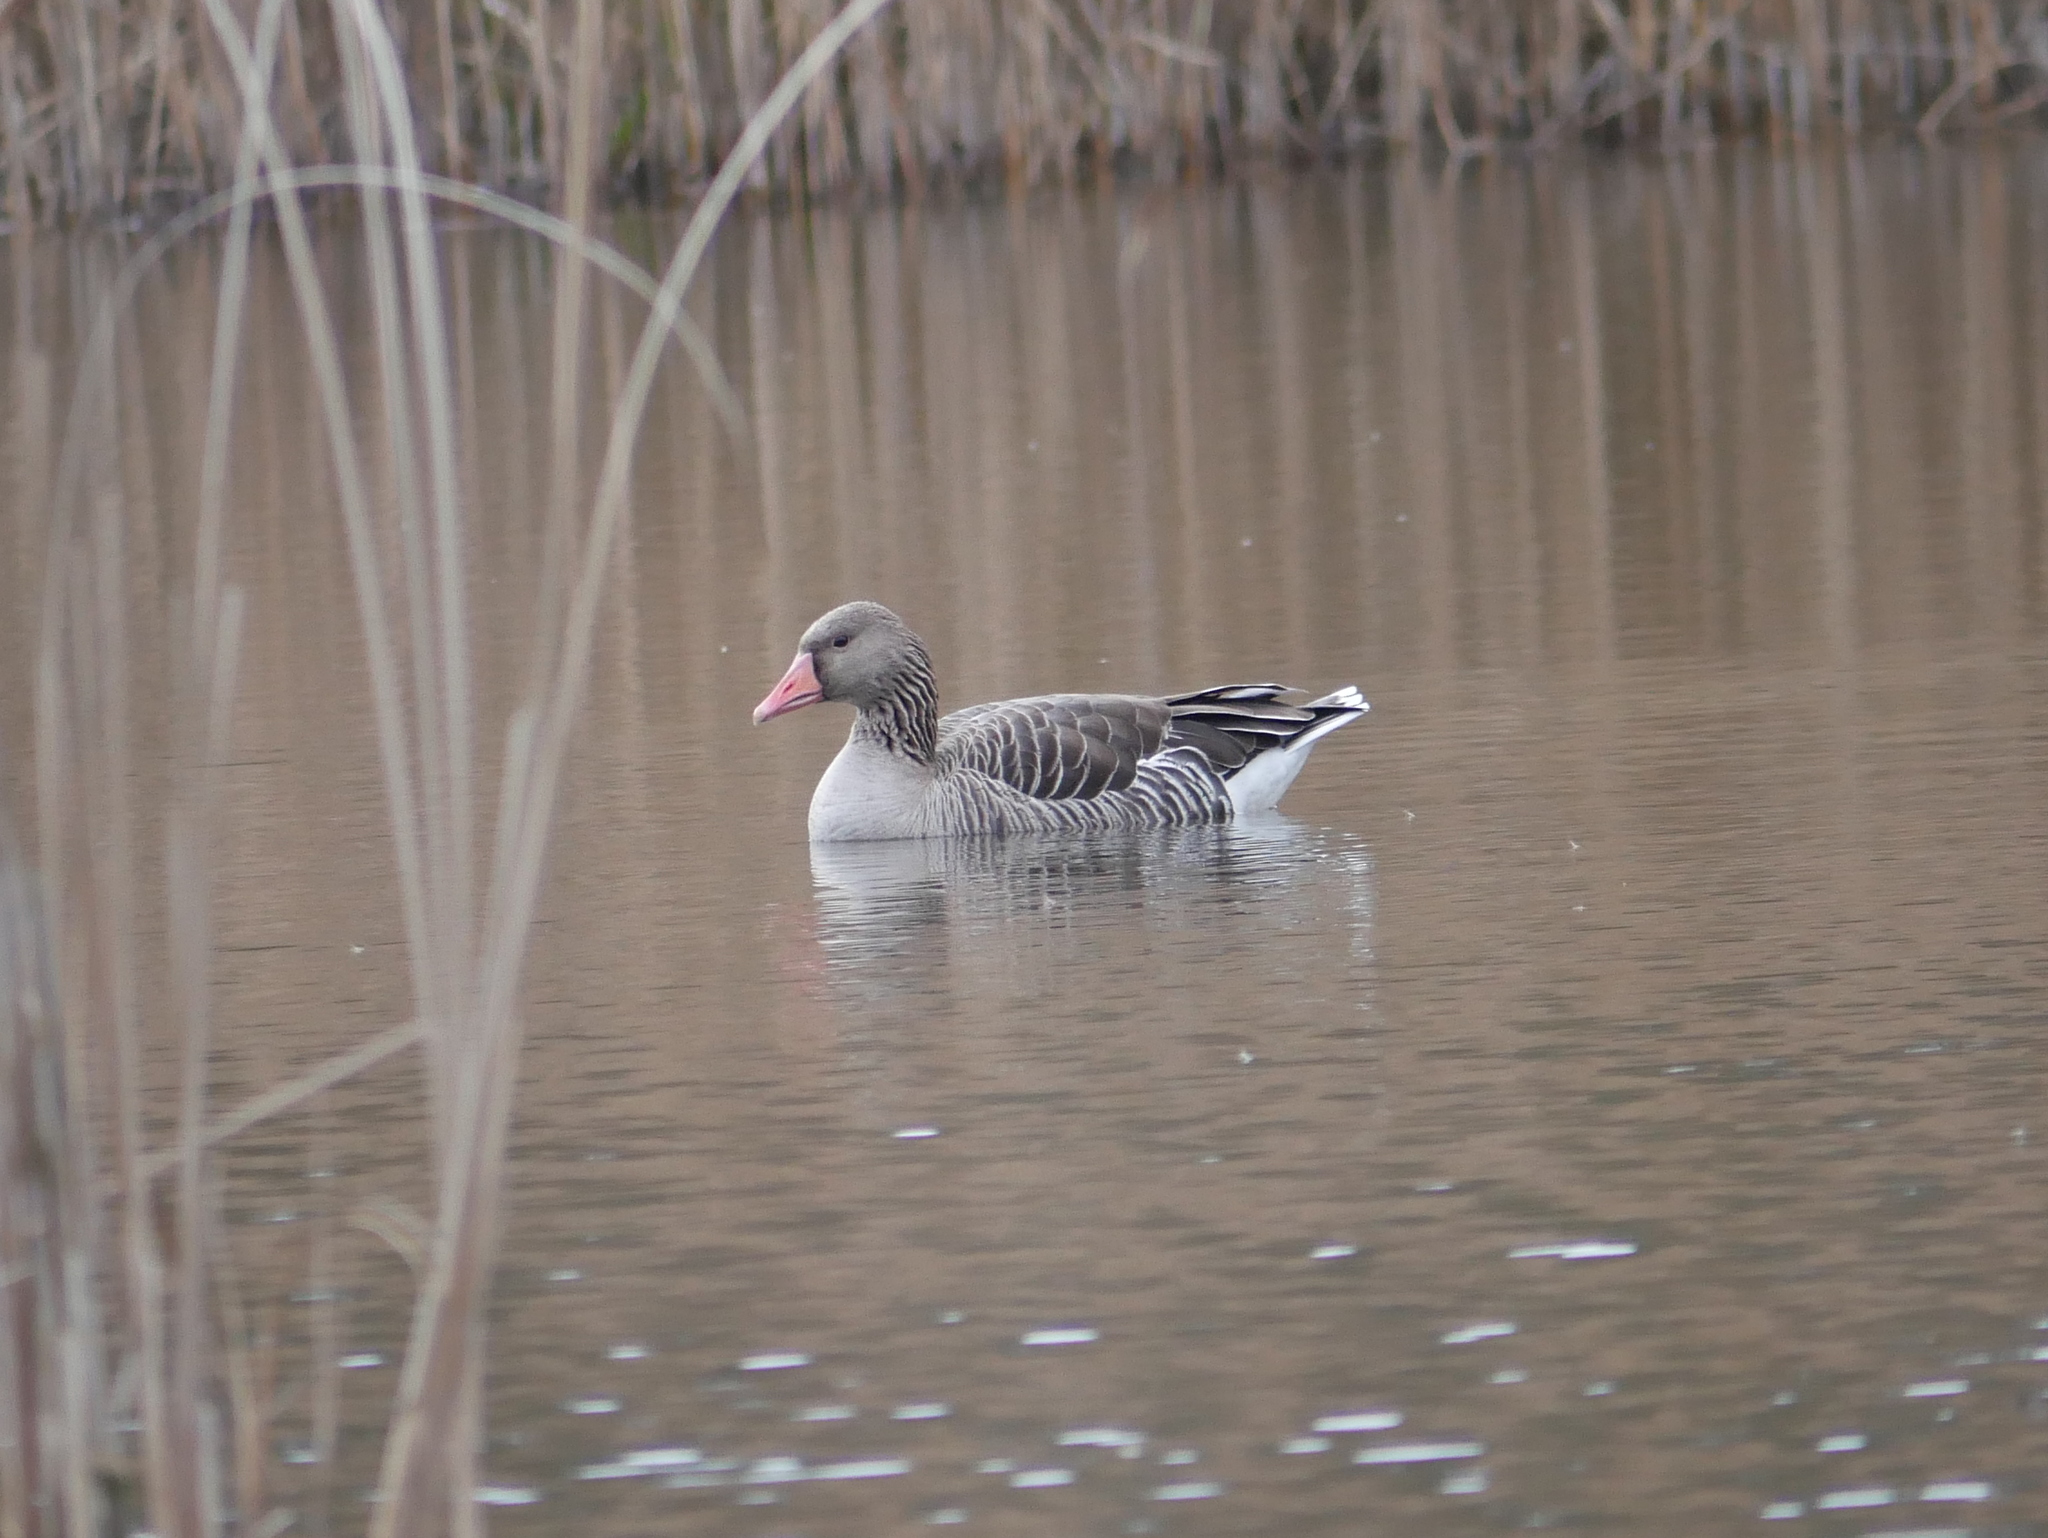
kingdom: Animalia
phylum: Chordata
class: Aves
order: Anseriformes
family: Anatidae
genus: Anser
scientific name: Anser anser
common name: Greylag goose
